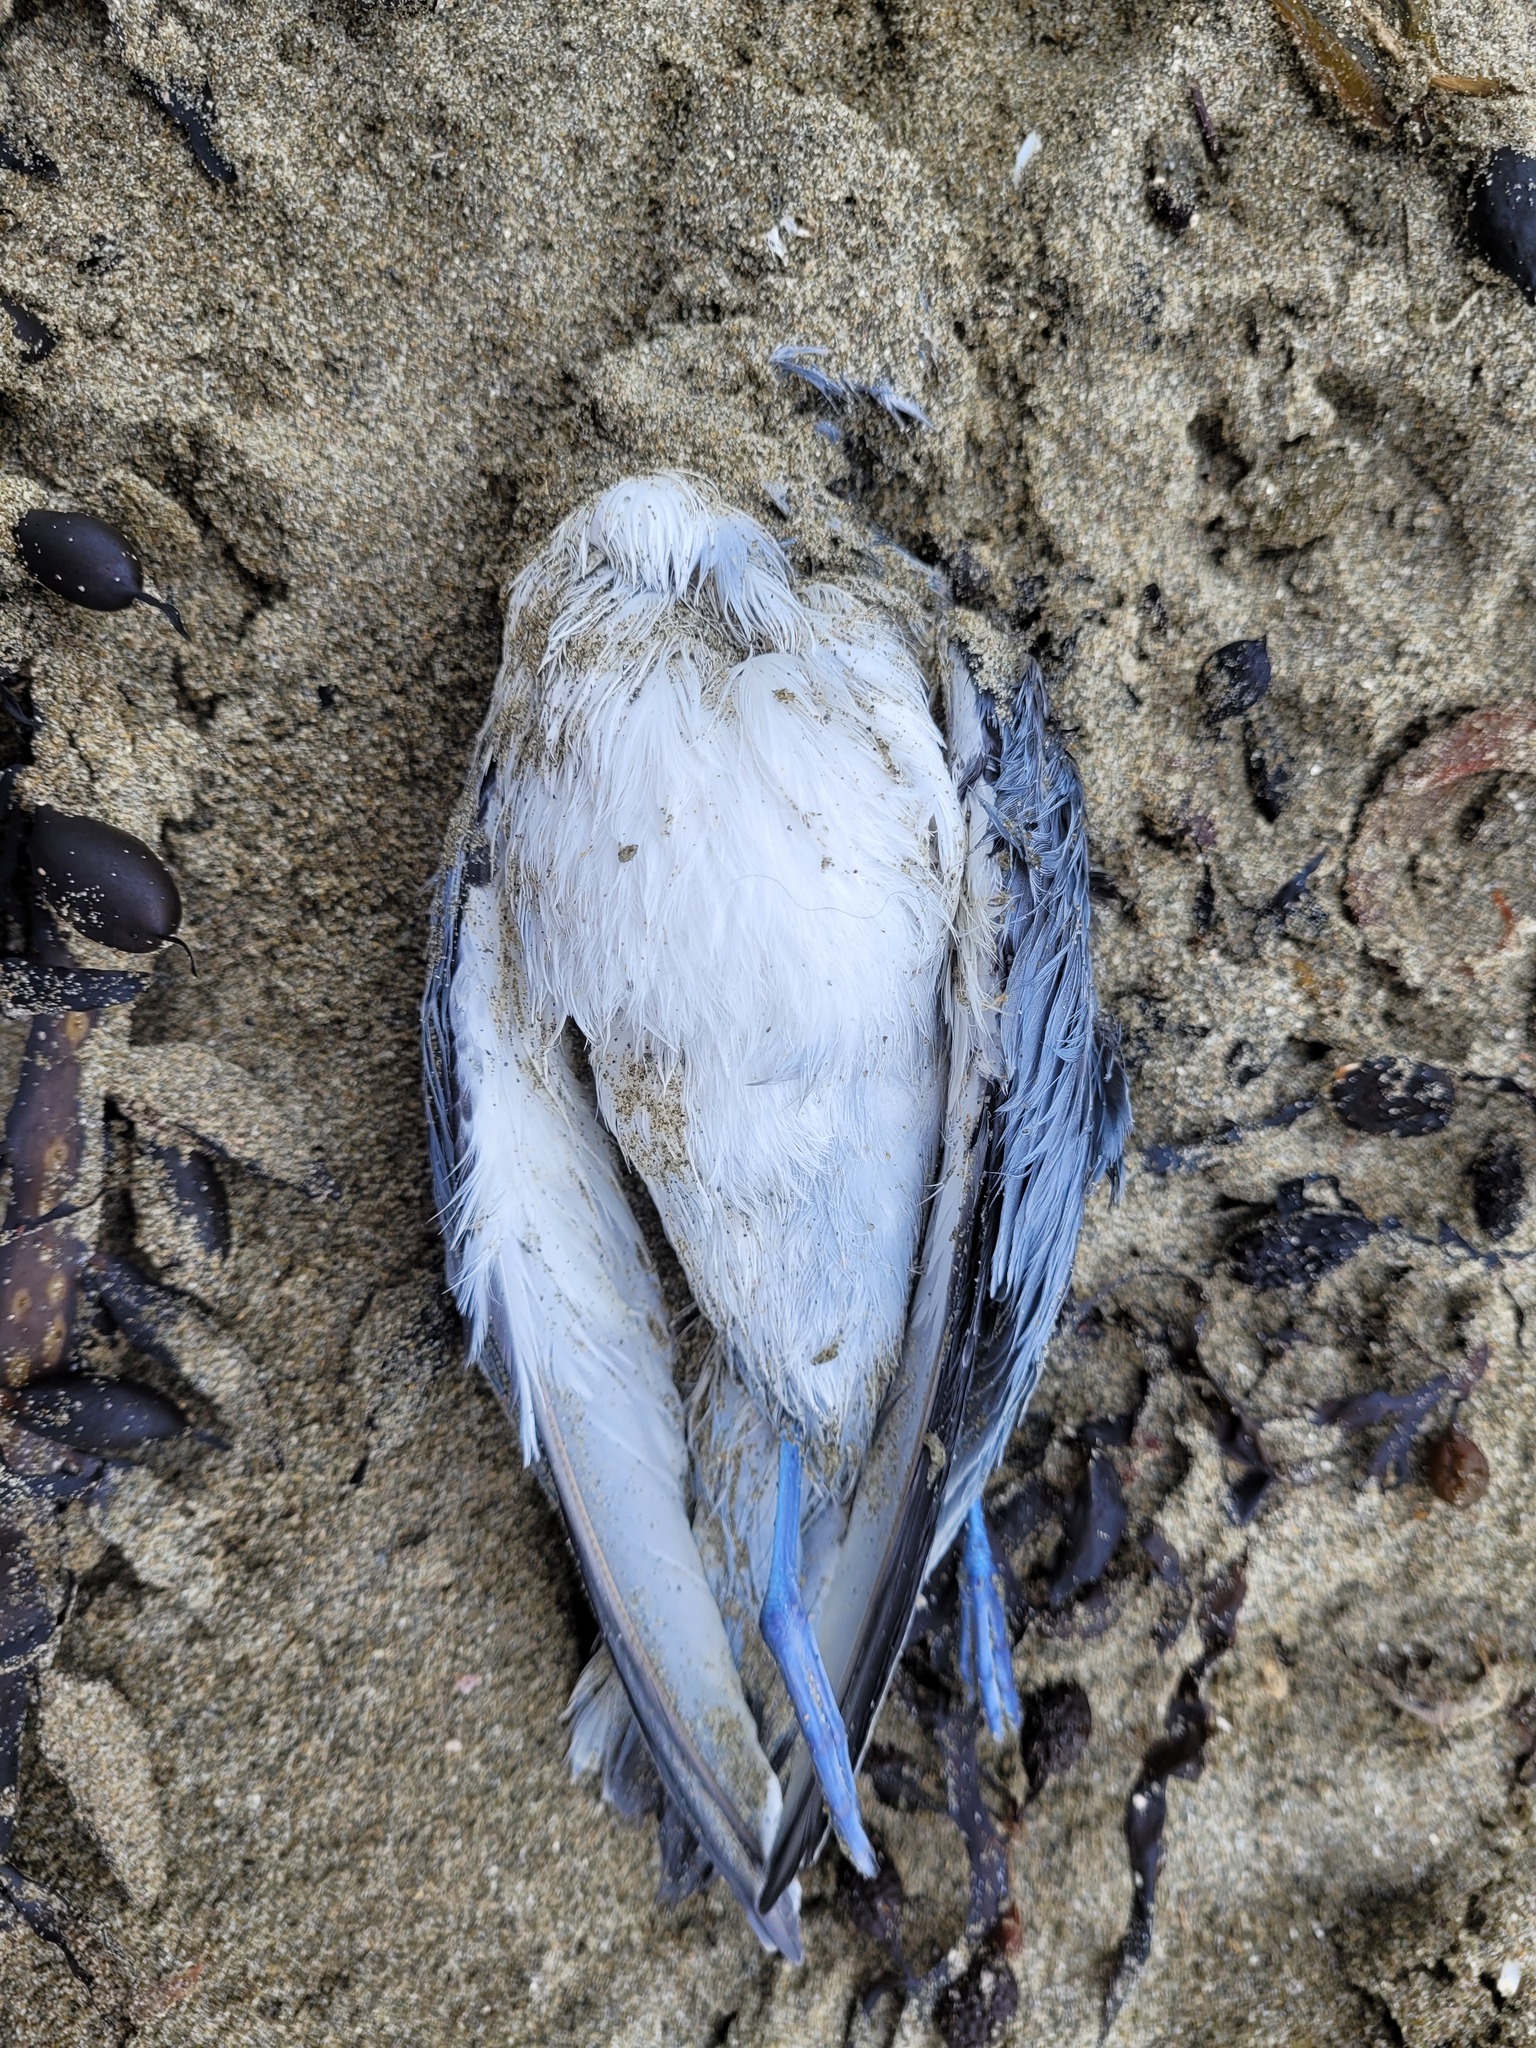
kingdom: Animalia
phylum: Chordata
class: Aves
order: Procellariiformes
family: Procellariidae
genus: Pachyptila
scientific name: Pachyptila belcheri
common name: Slender-billed prion
